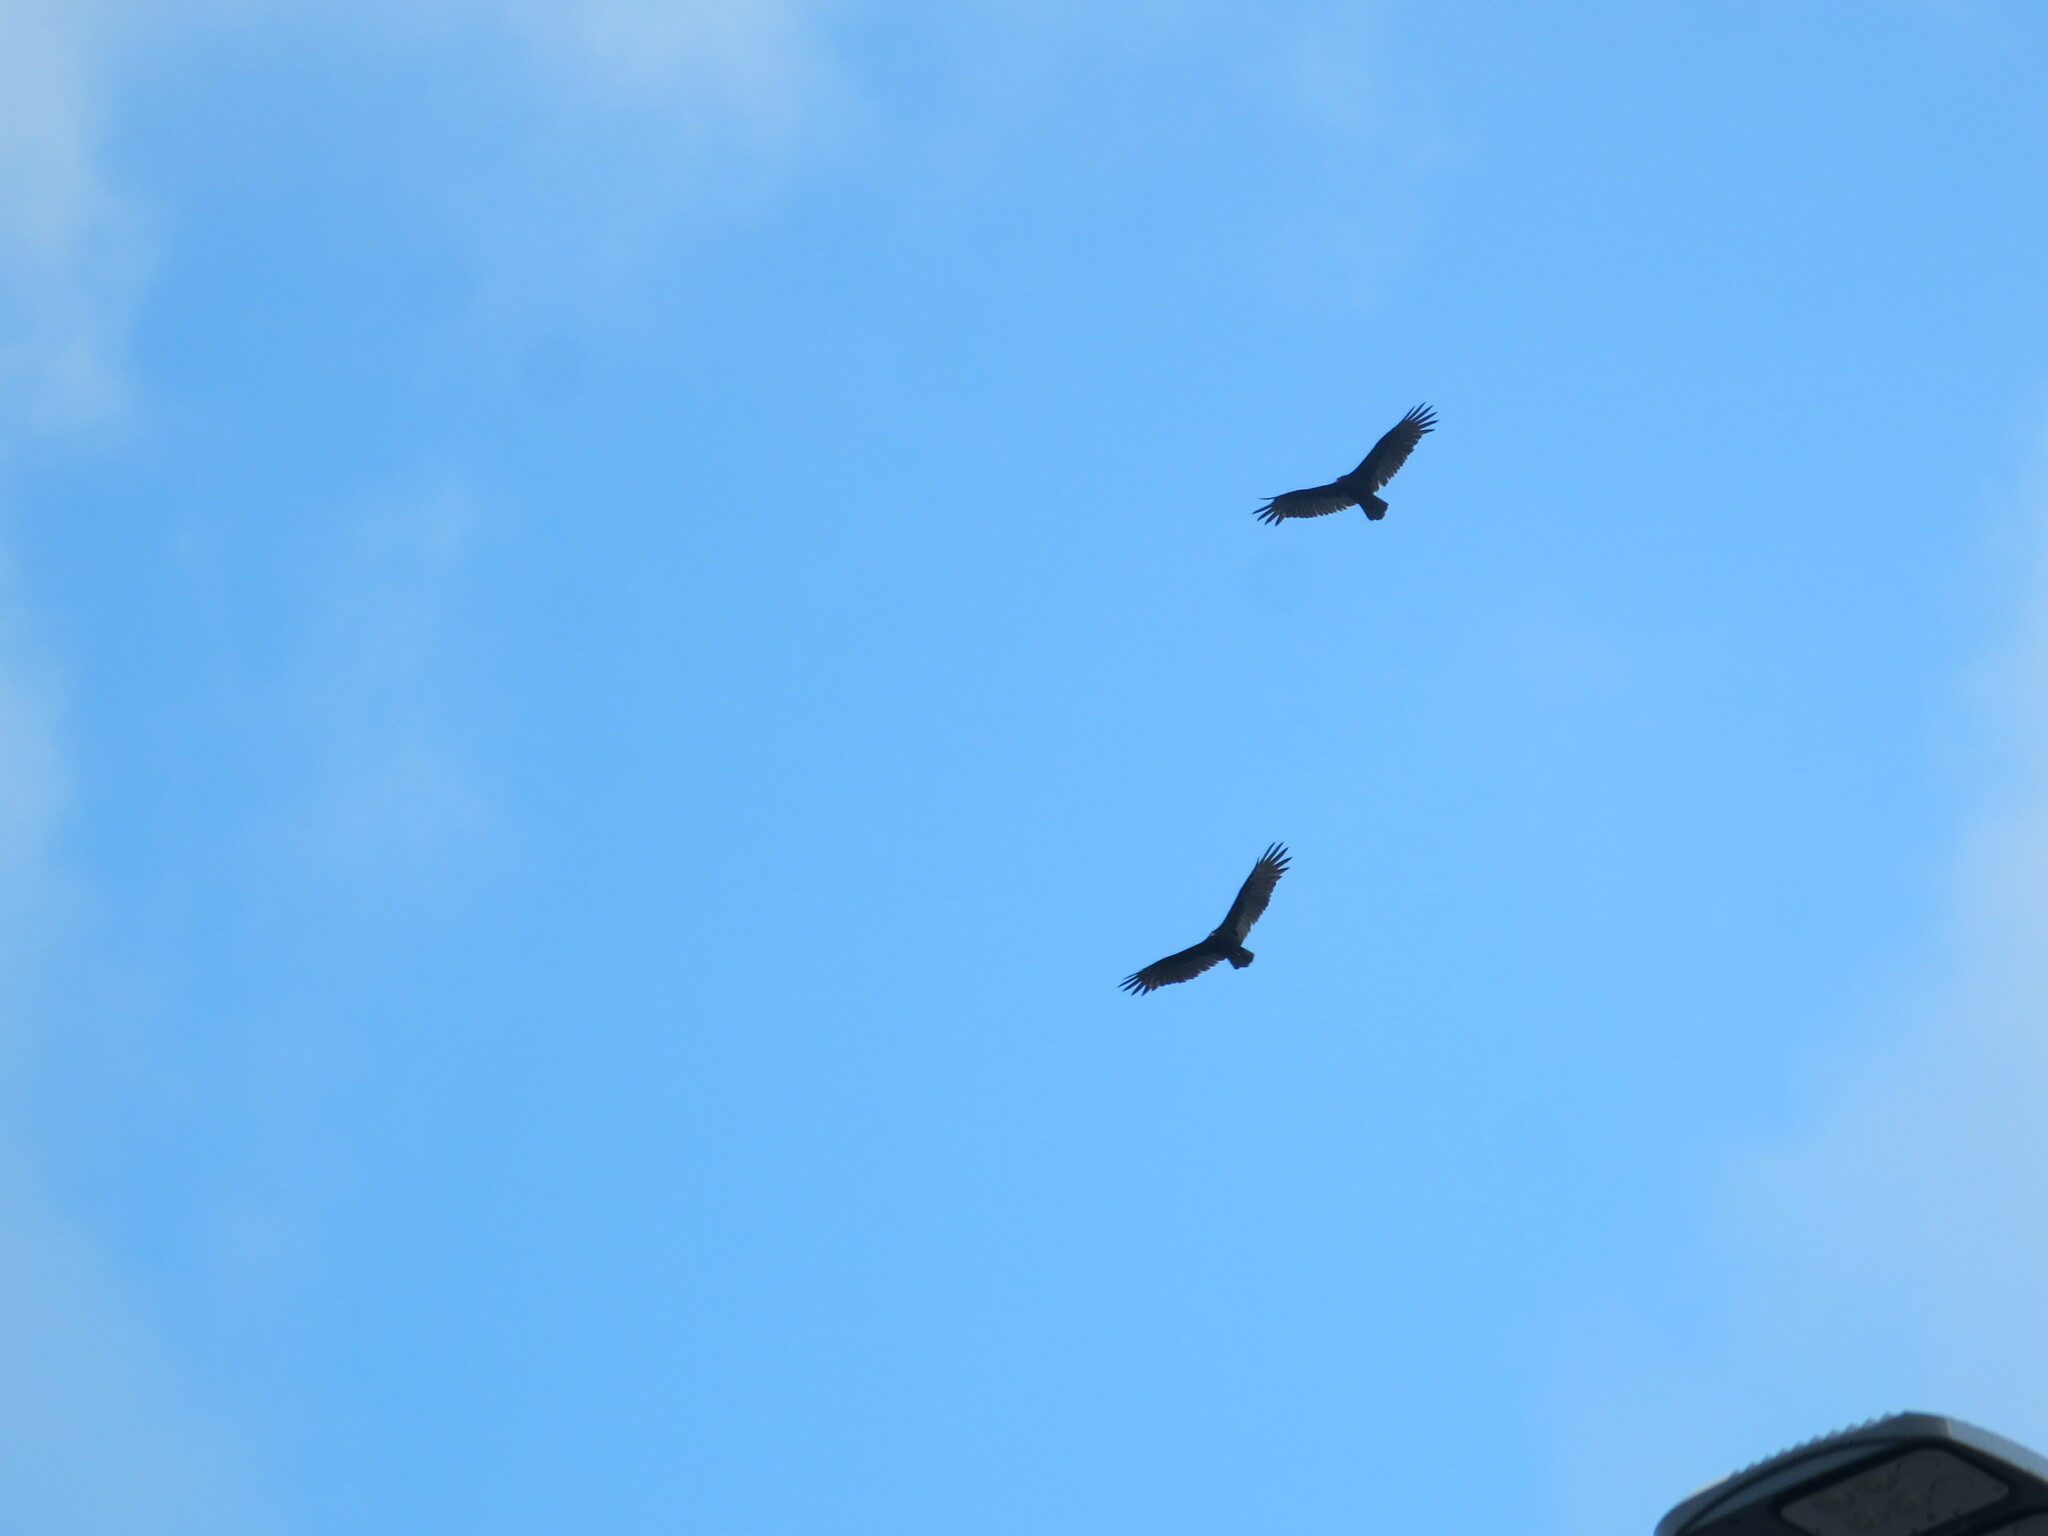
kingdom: Animalia
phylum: Chordata
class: Aves
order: Accipitriformes
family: Cathartidae
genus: Cathartes
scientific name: Cathartes aura
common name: Turkey vulture
